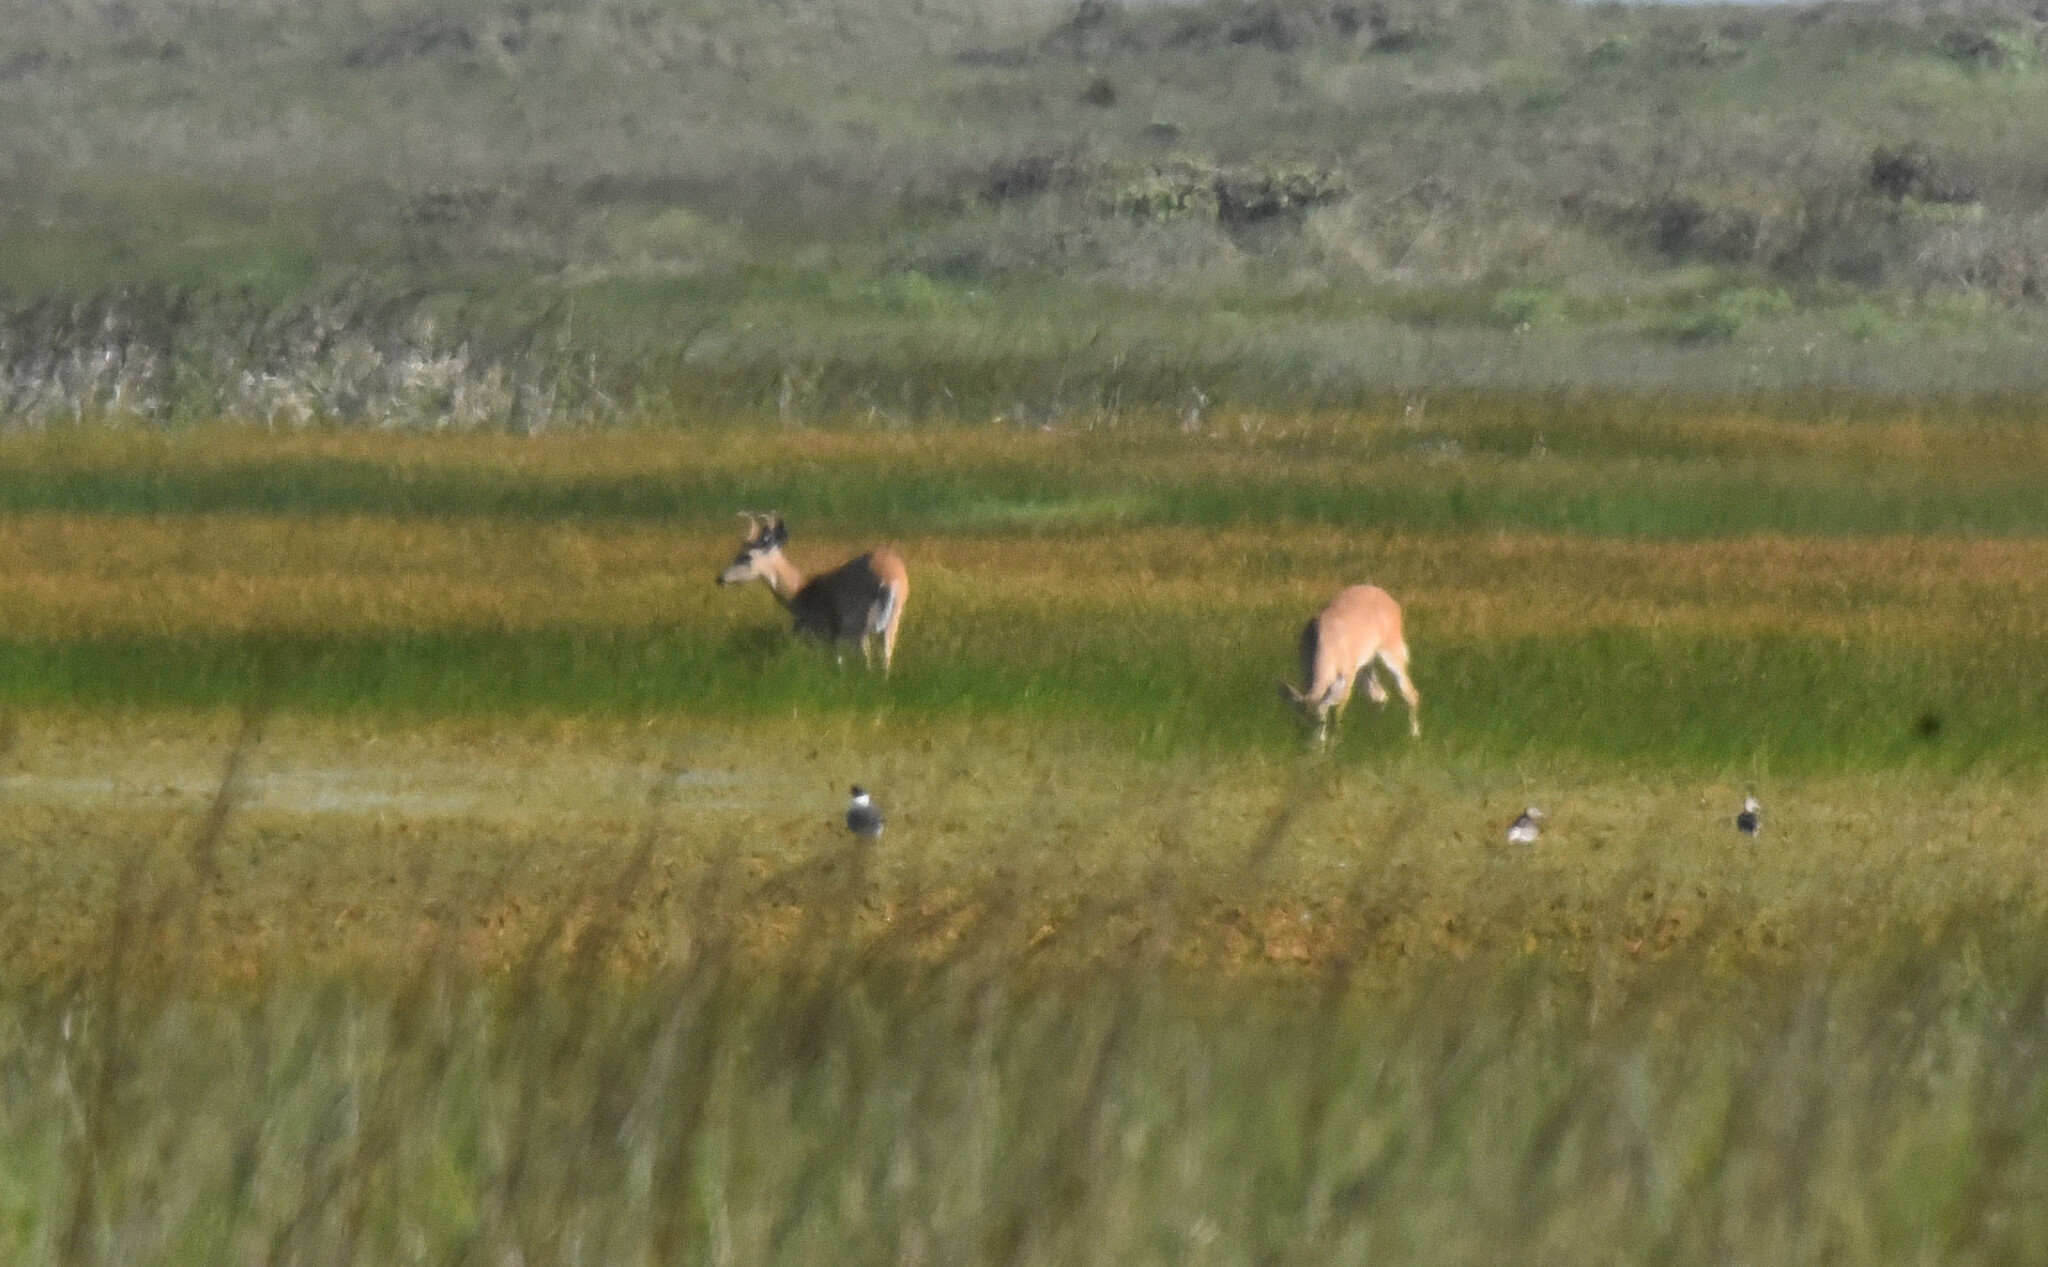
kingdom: Animalia
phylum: Chordata
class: Mammalia
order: Artiodactyla
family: Cervidae
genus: Odocoileus
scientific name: Odocoileus virginianus
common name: White-tailed deer
